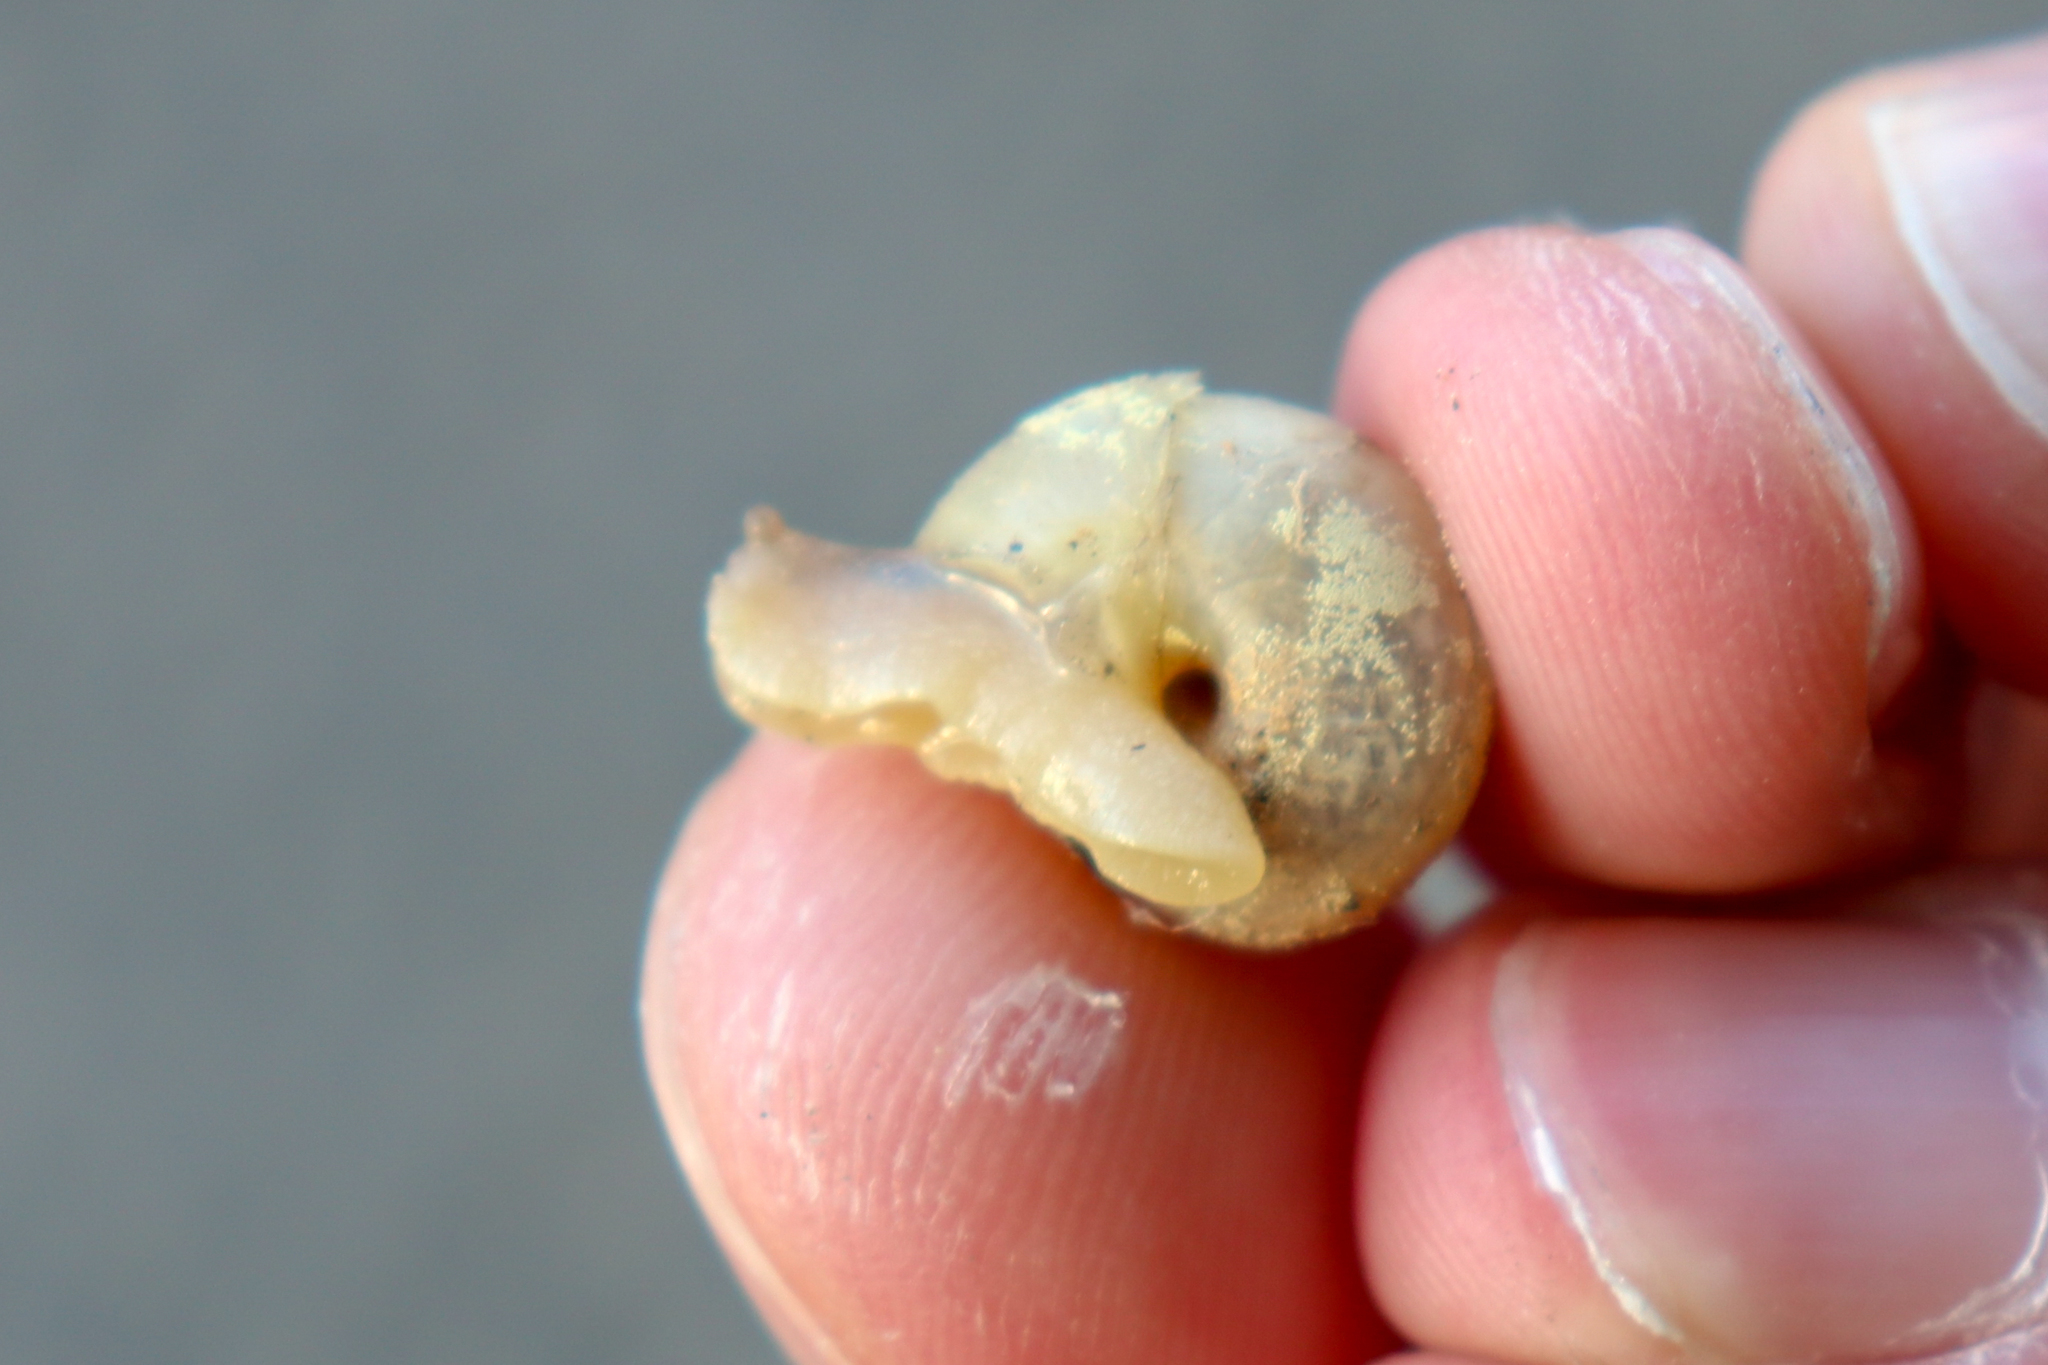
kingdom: Animalia
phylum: Mollusca
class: Gastropoda
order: Stylommatophora
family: Camaenidae
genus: Fruticicola
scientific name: Fruticicola fruticum
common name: Bush snail
